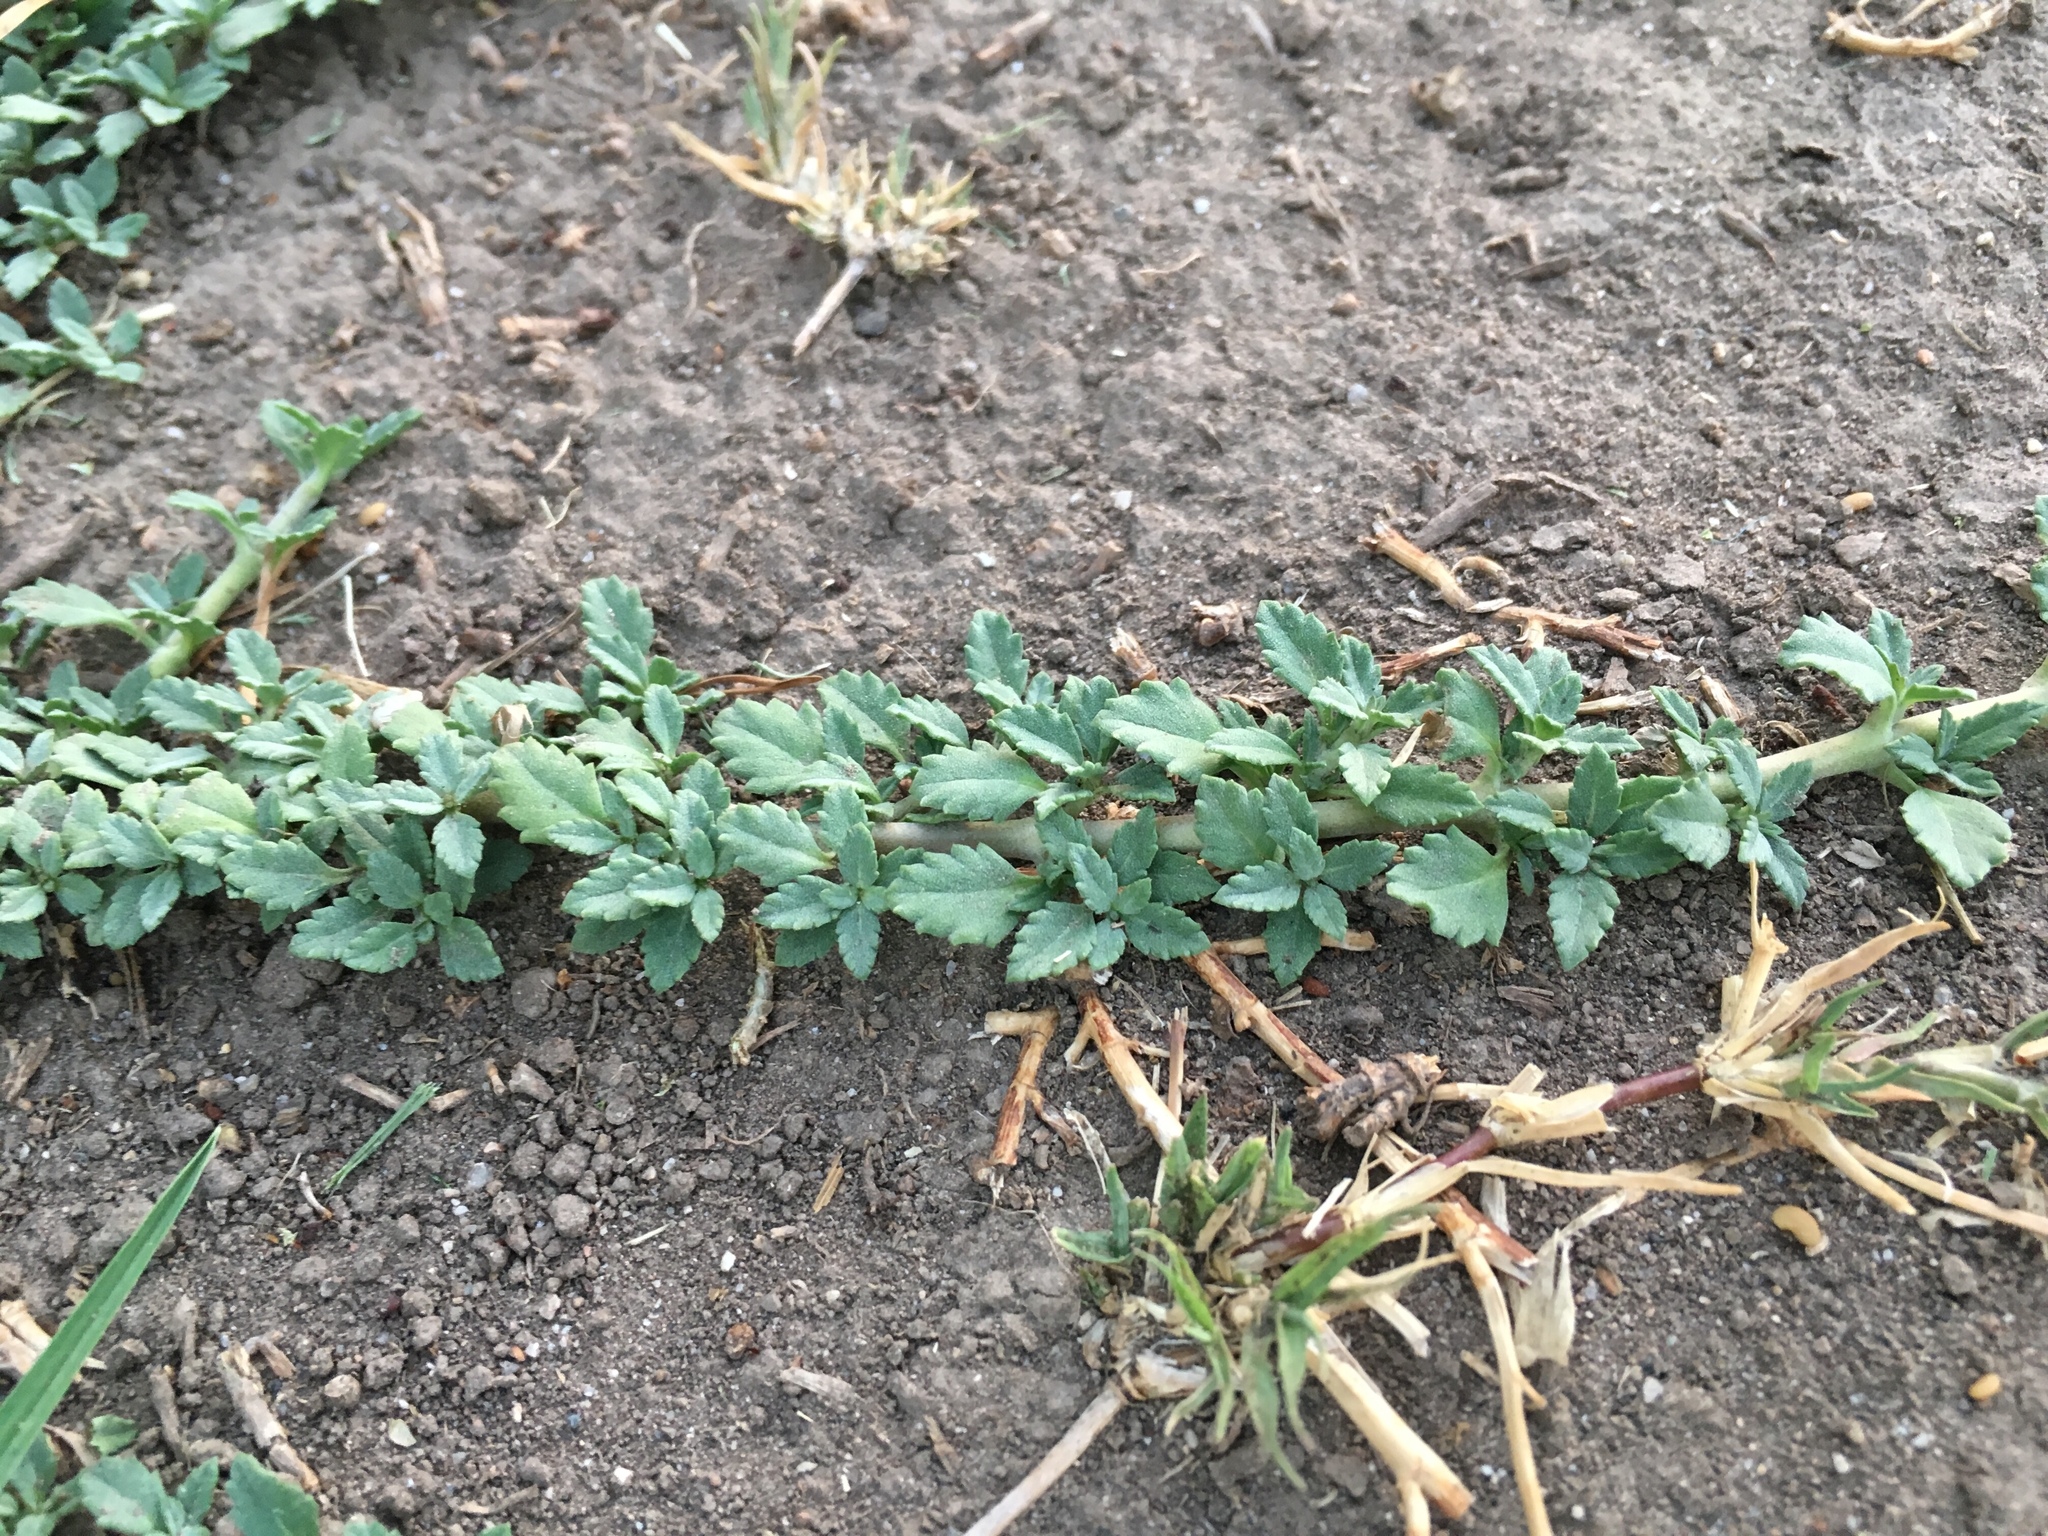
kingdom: Plantae
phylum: Tracheophyta
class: Magnoliopsida
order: Lamiales
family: Verbenaceae
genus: Phyla
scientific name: Phyla nodiflora
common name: Frogfruit
